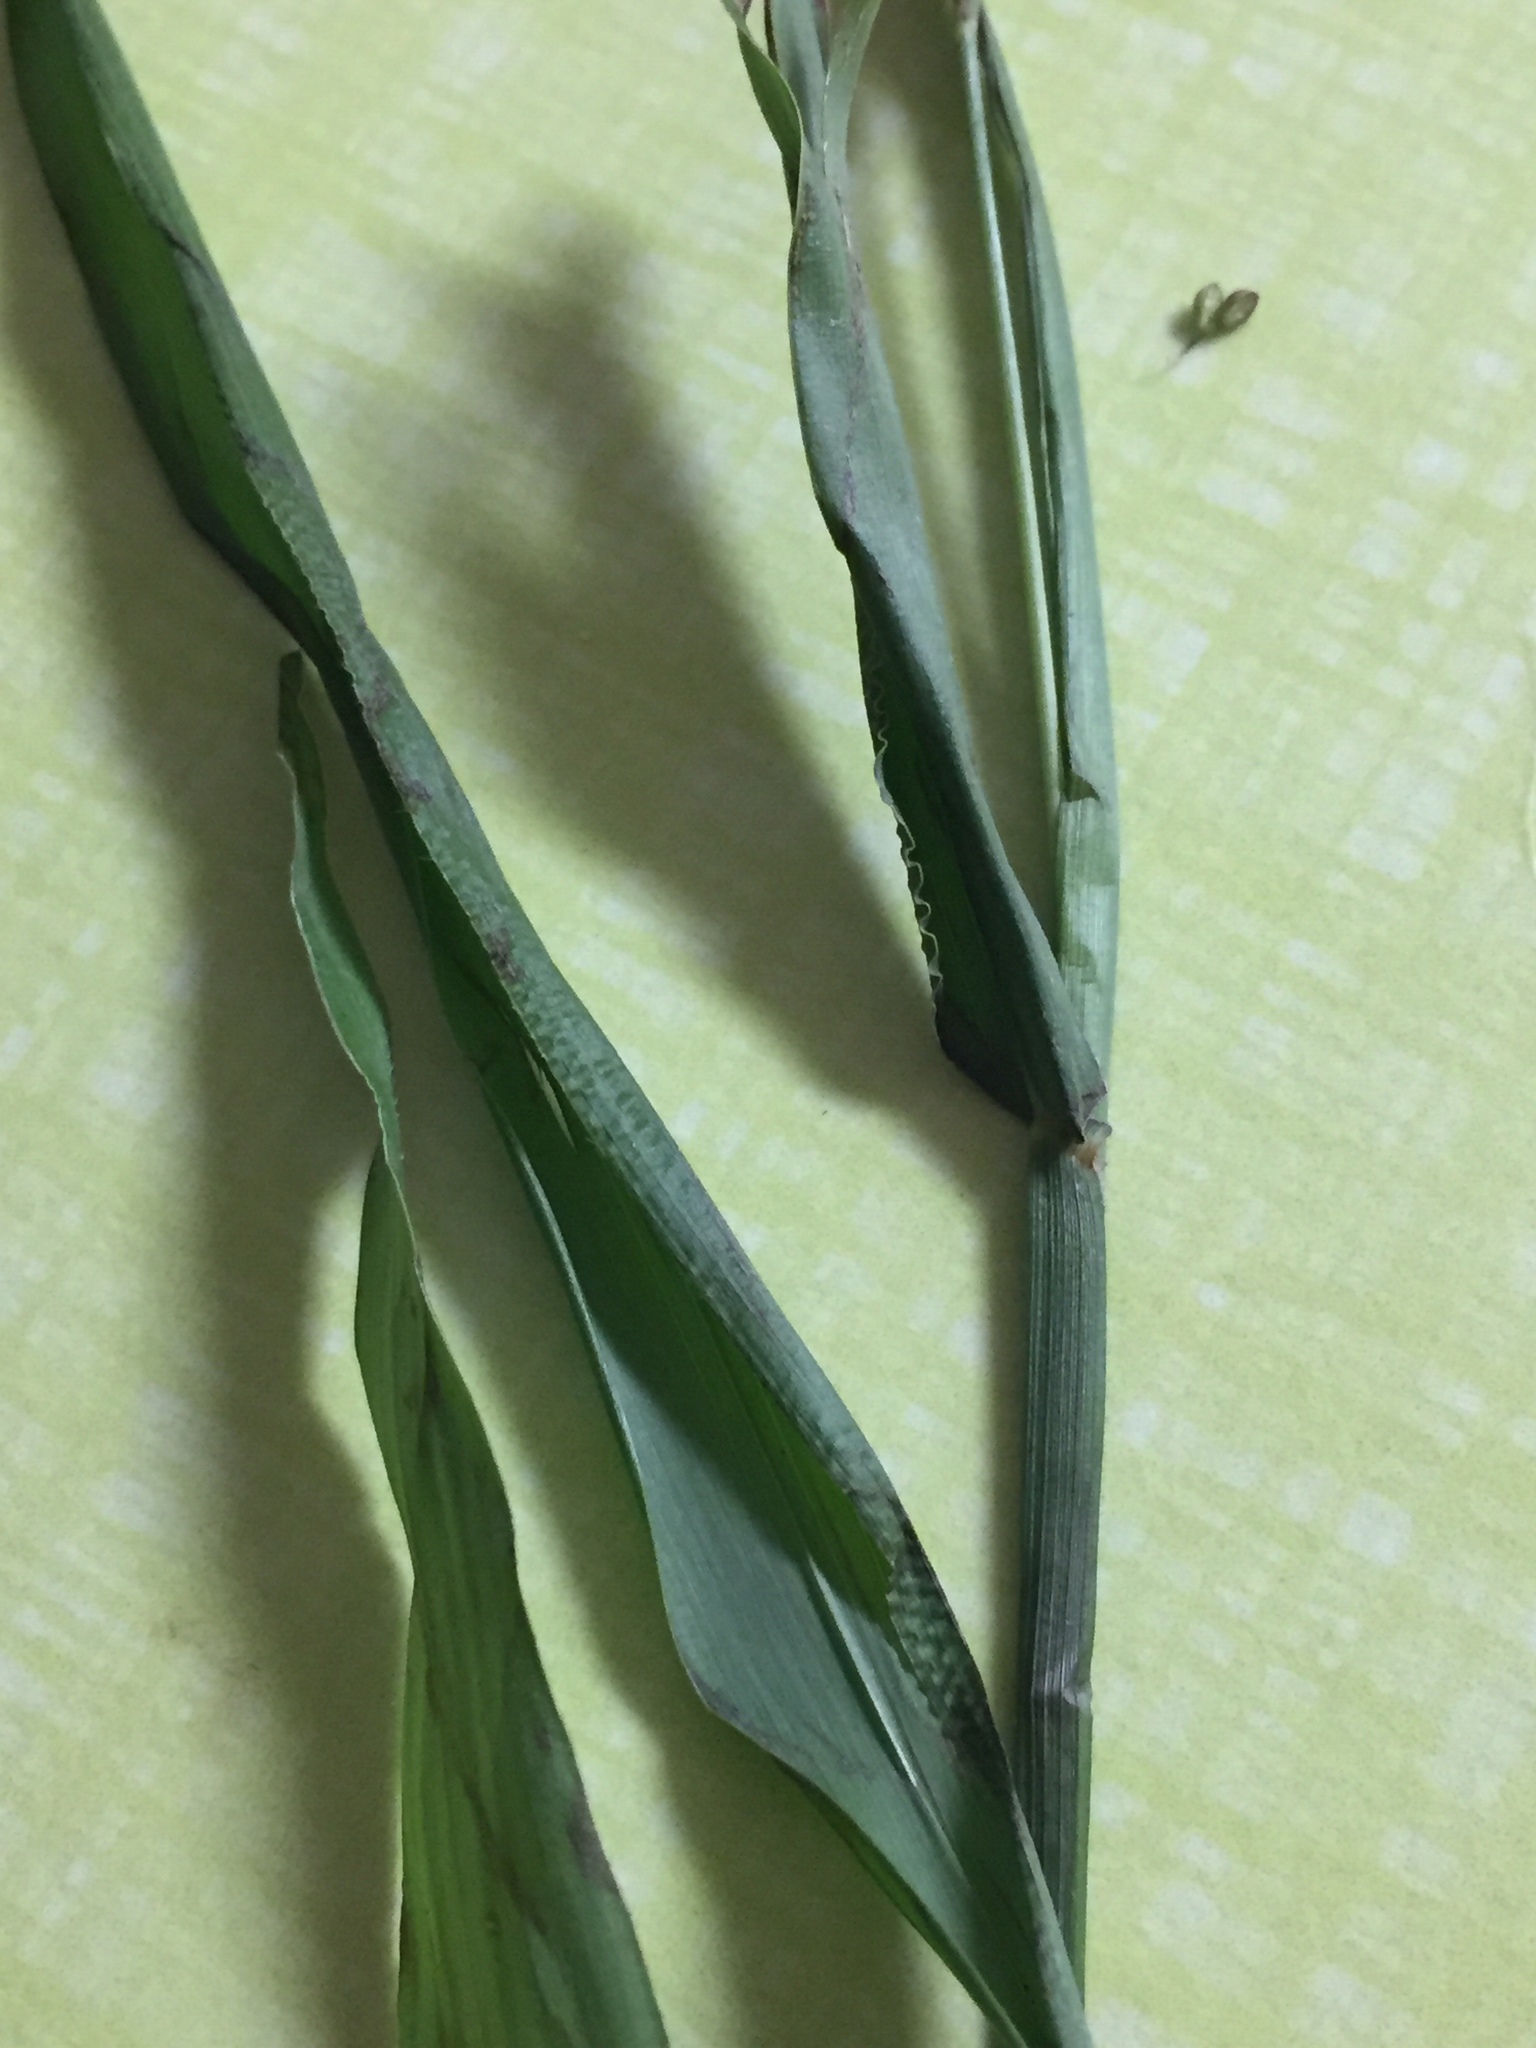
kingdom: Plantae
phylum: Tracheophyta
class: Liliopsida
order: Poales
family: Poaceae
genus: Paspalum
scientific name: Paspalum langei
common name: Rusty-seed paspalum
